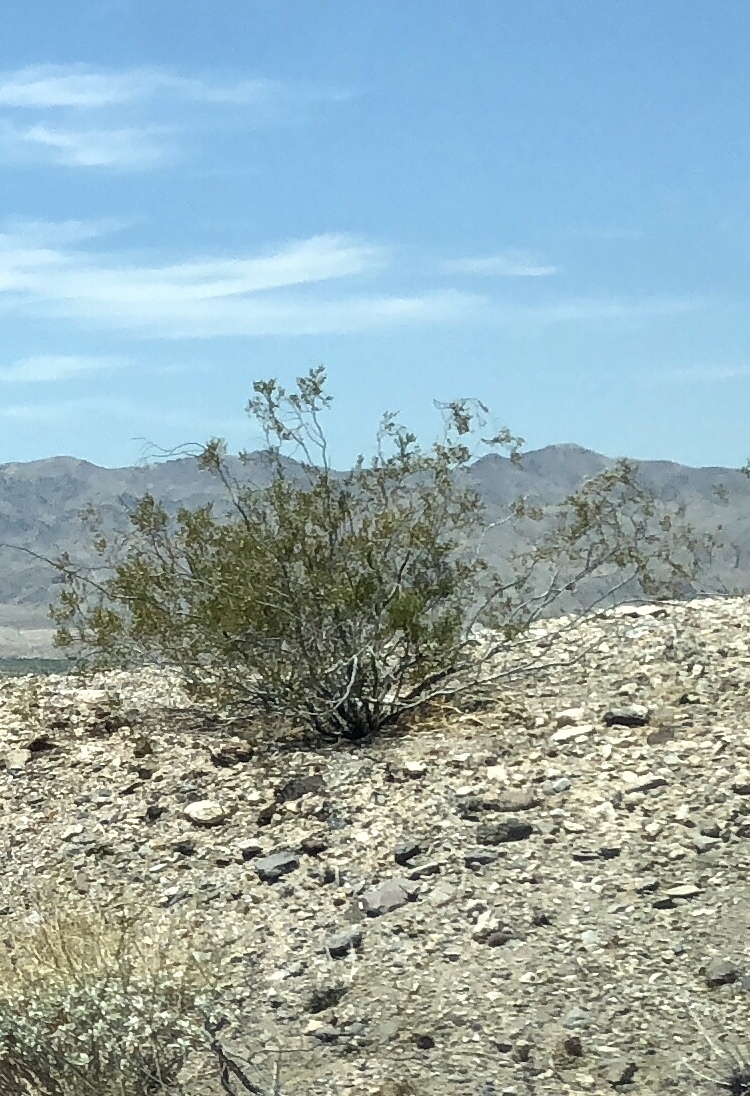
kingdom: Plantae
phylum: Tracheophyta
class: Magnoliopsida
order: Zygophyllales
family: Zygophyllaceae
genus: Larrea
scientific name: Larrea tridentata
